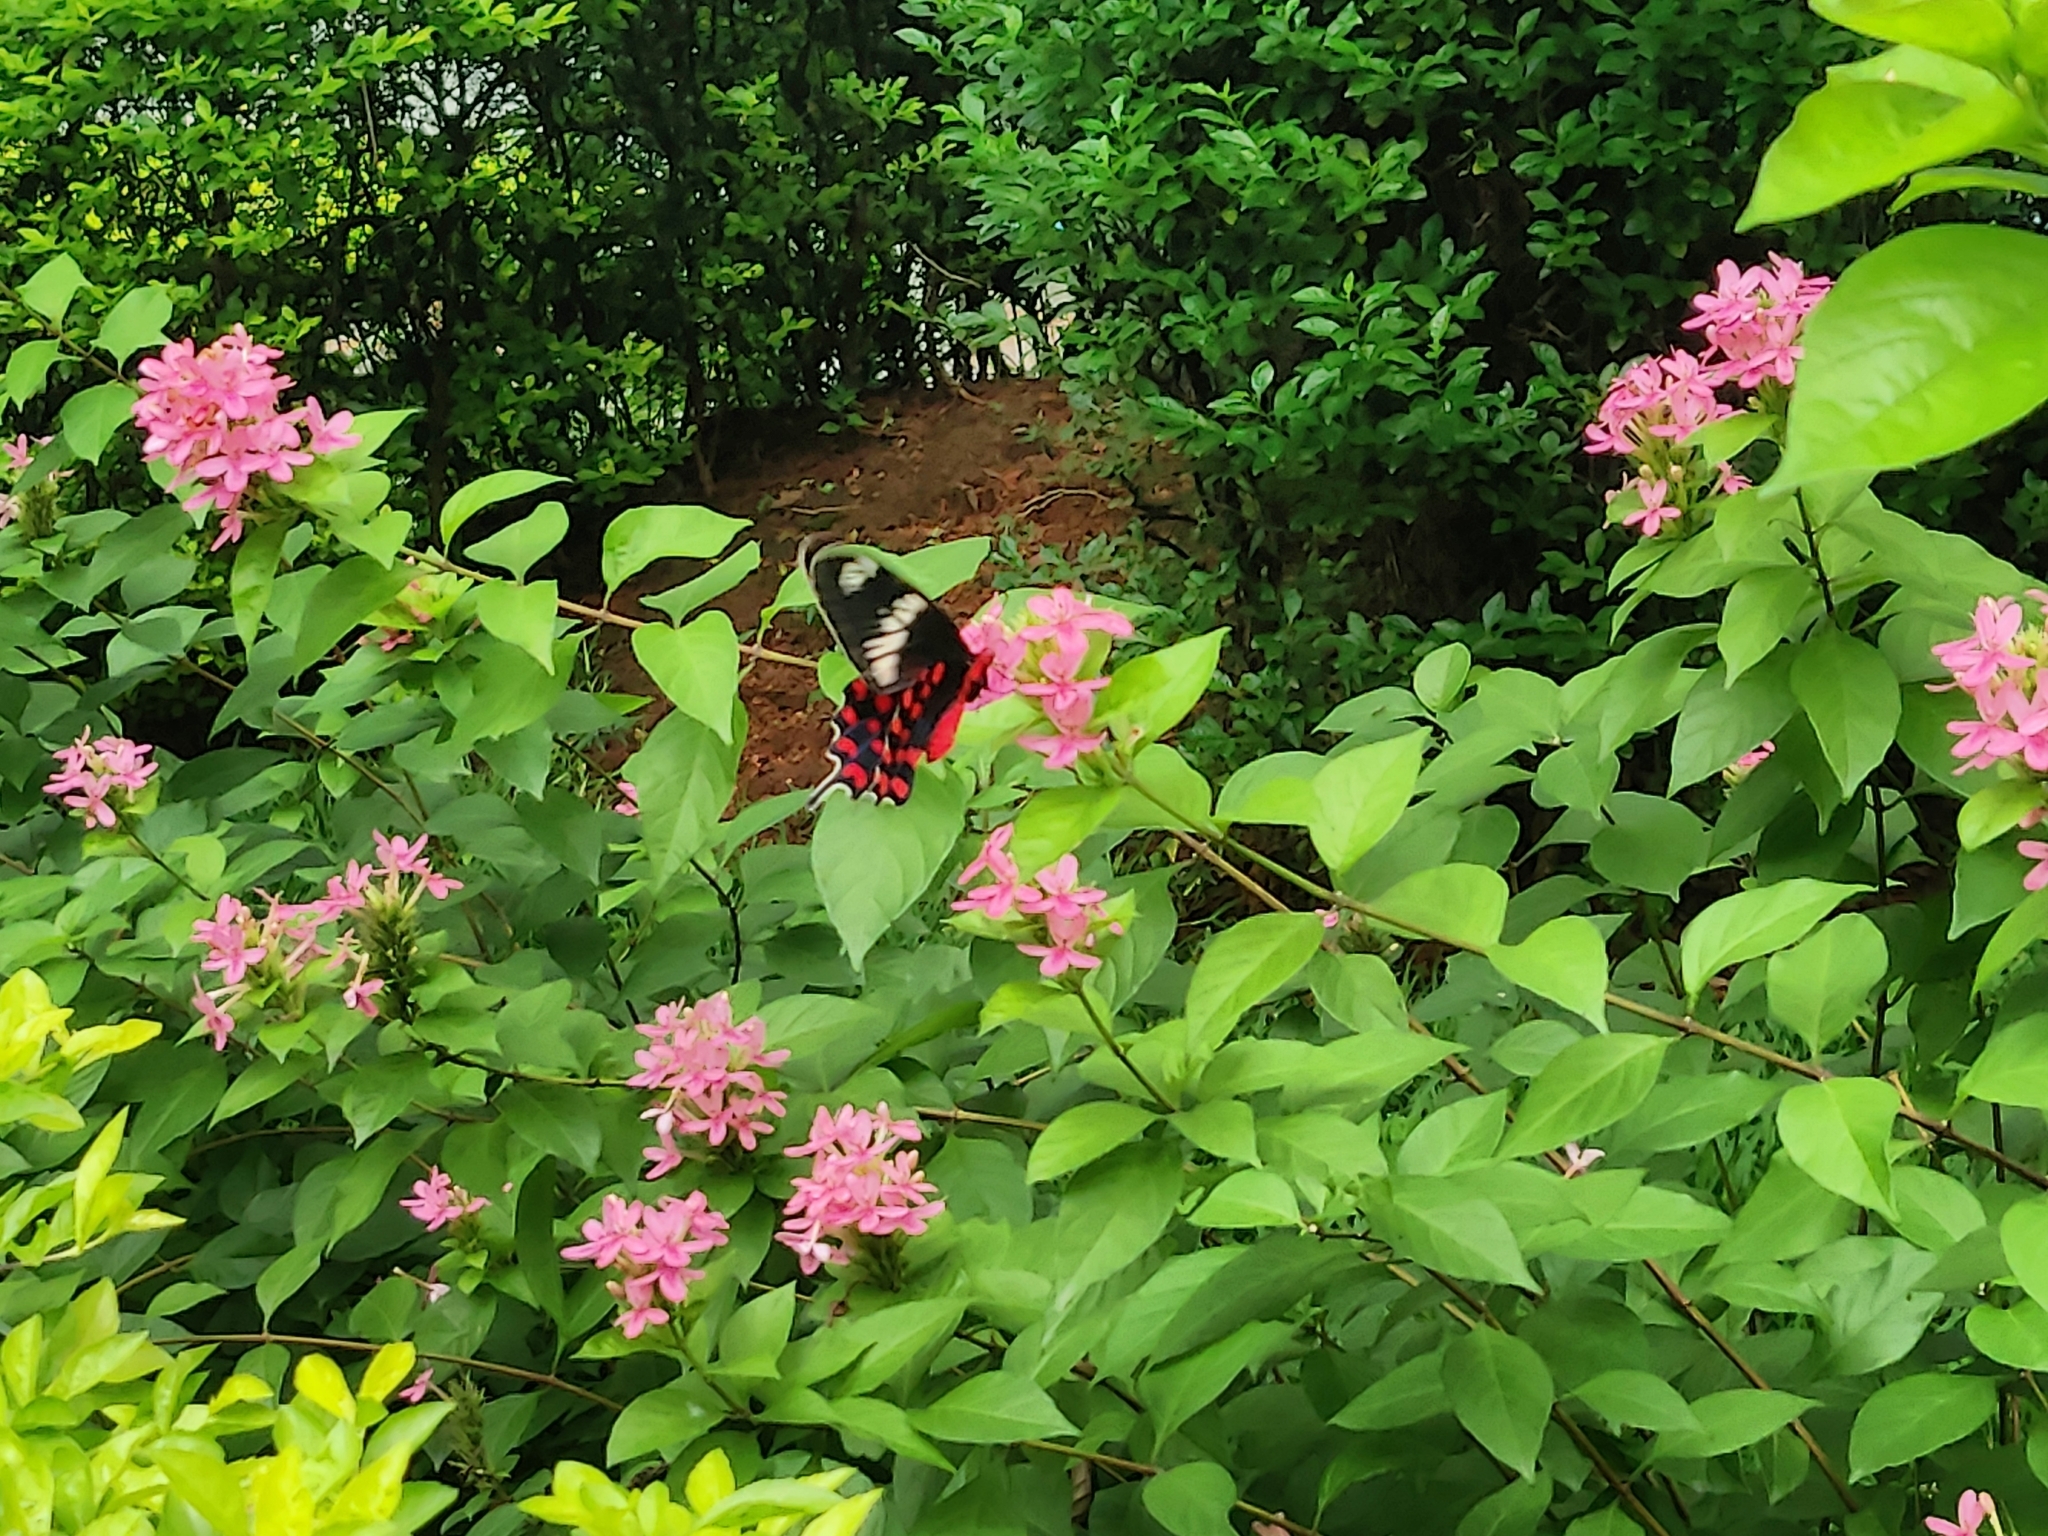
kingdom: Animalia
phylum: Arthropoda
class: Insecta
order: Lepidoptera
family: Papilionidae
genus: Pachliopta
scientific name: Pachliopta hector
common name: Crimson rose
